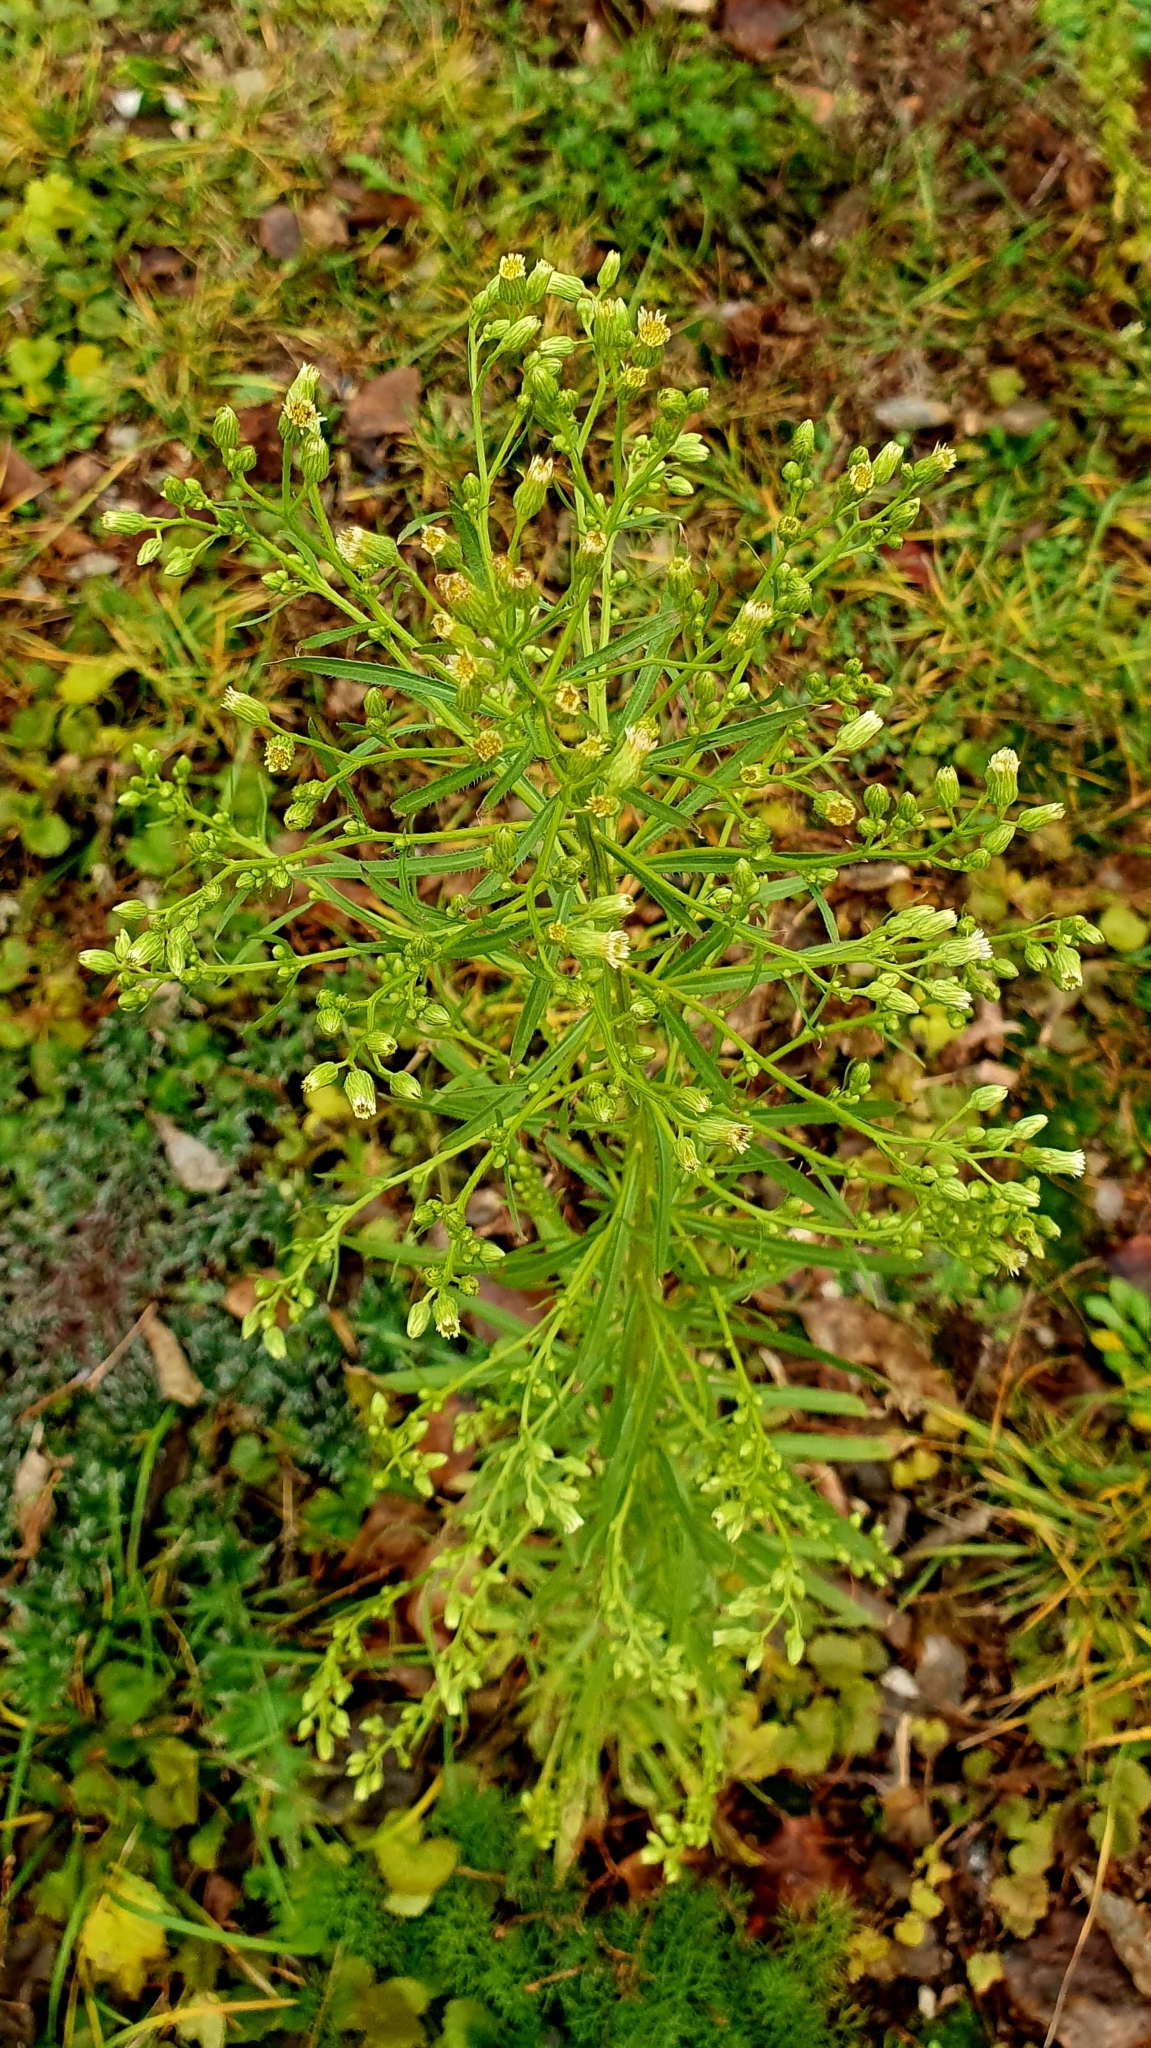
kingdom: Plantae
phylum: Tracheophyta
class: Magnoliopsida
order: Asterales
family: Asteraceae
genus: Erigeron
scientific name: Erigeron canadensis
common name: Canadian fleabane
